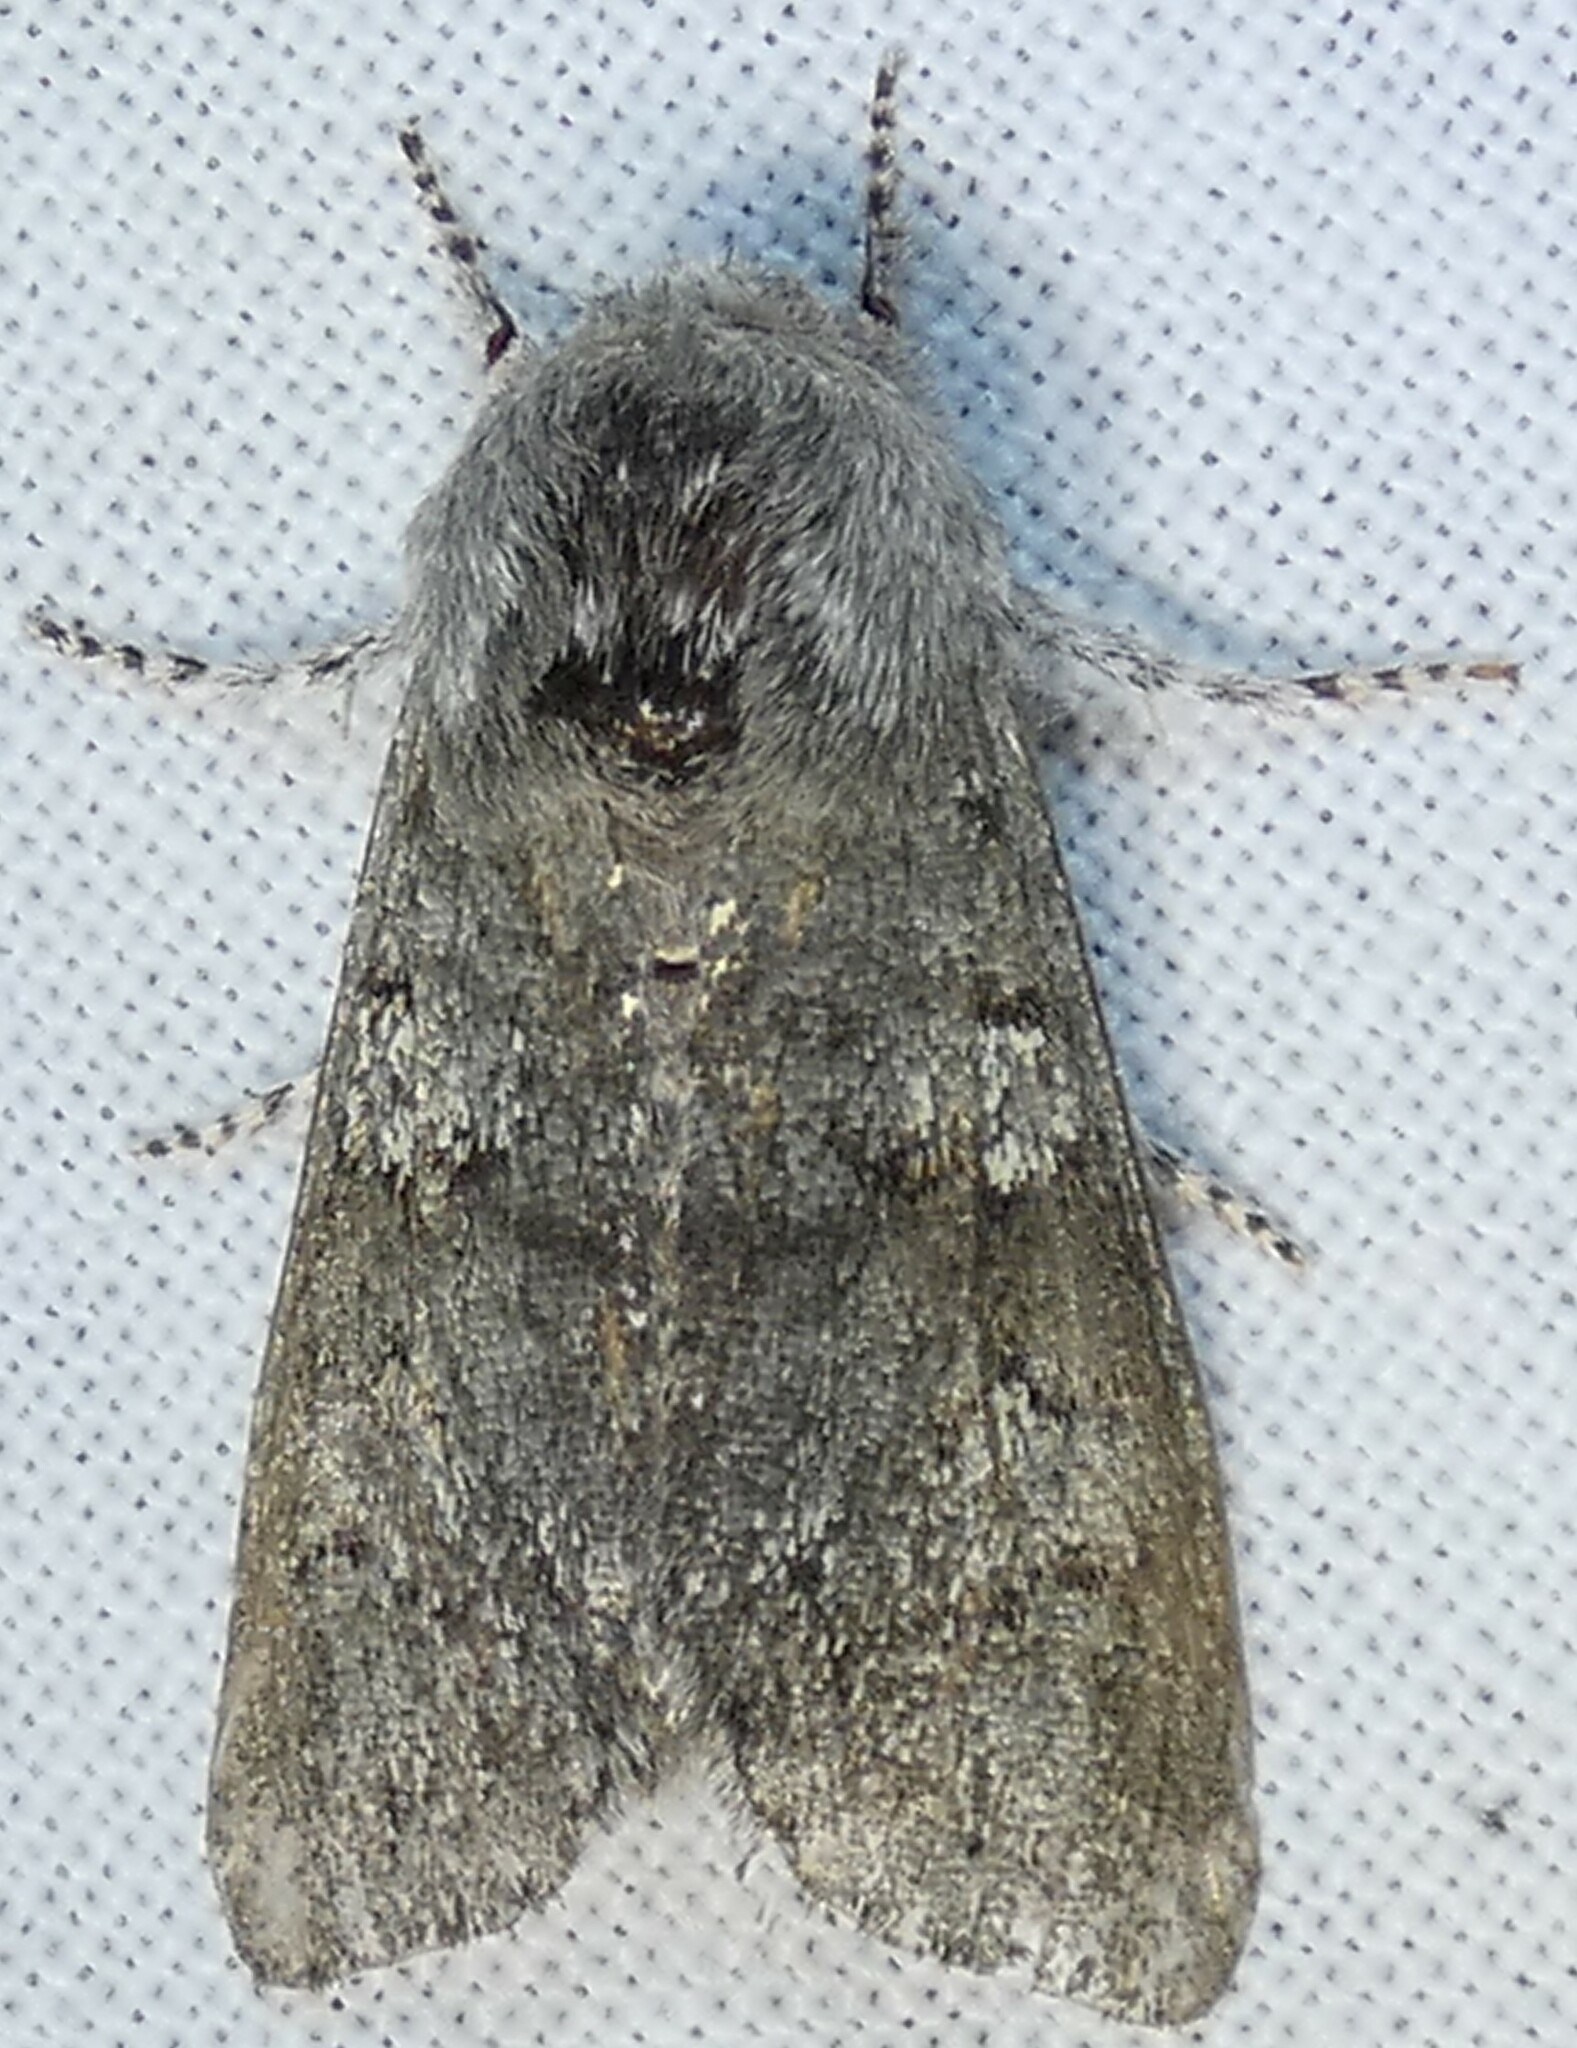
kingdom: Animalia
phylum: Arthropoda
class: Insecta
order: Lepidoptera
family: Noctuidae
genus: Psaphida
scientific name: Psaphida rolandi
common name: Roland's sallow
